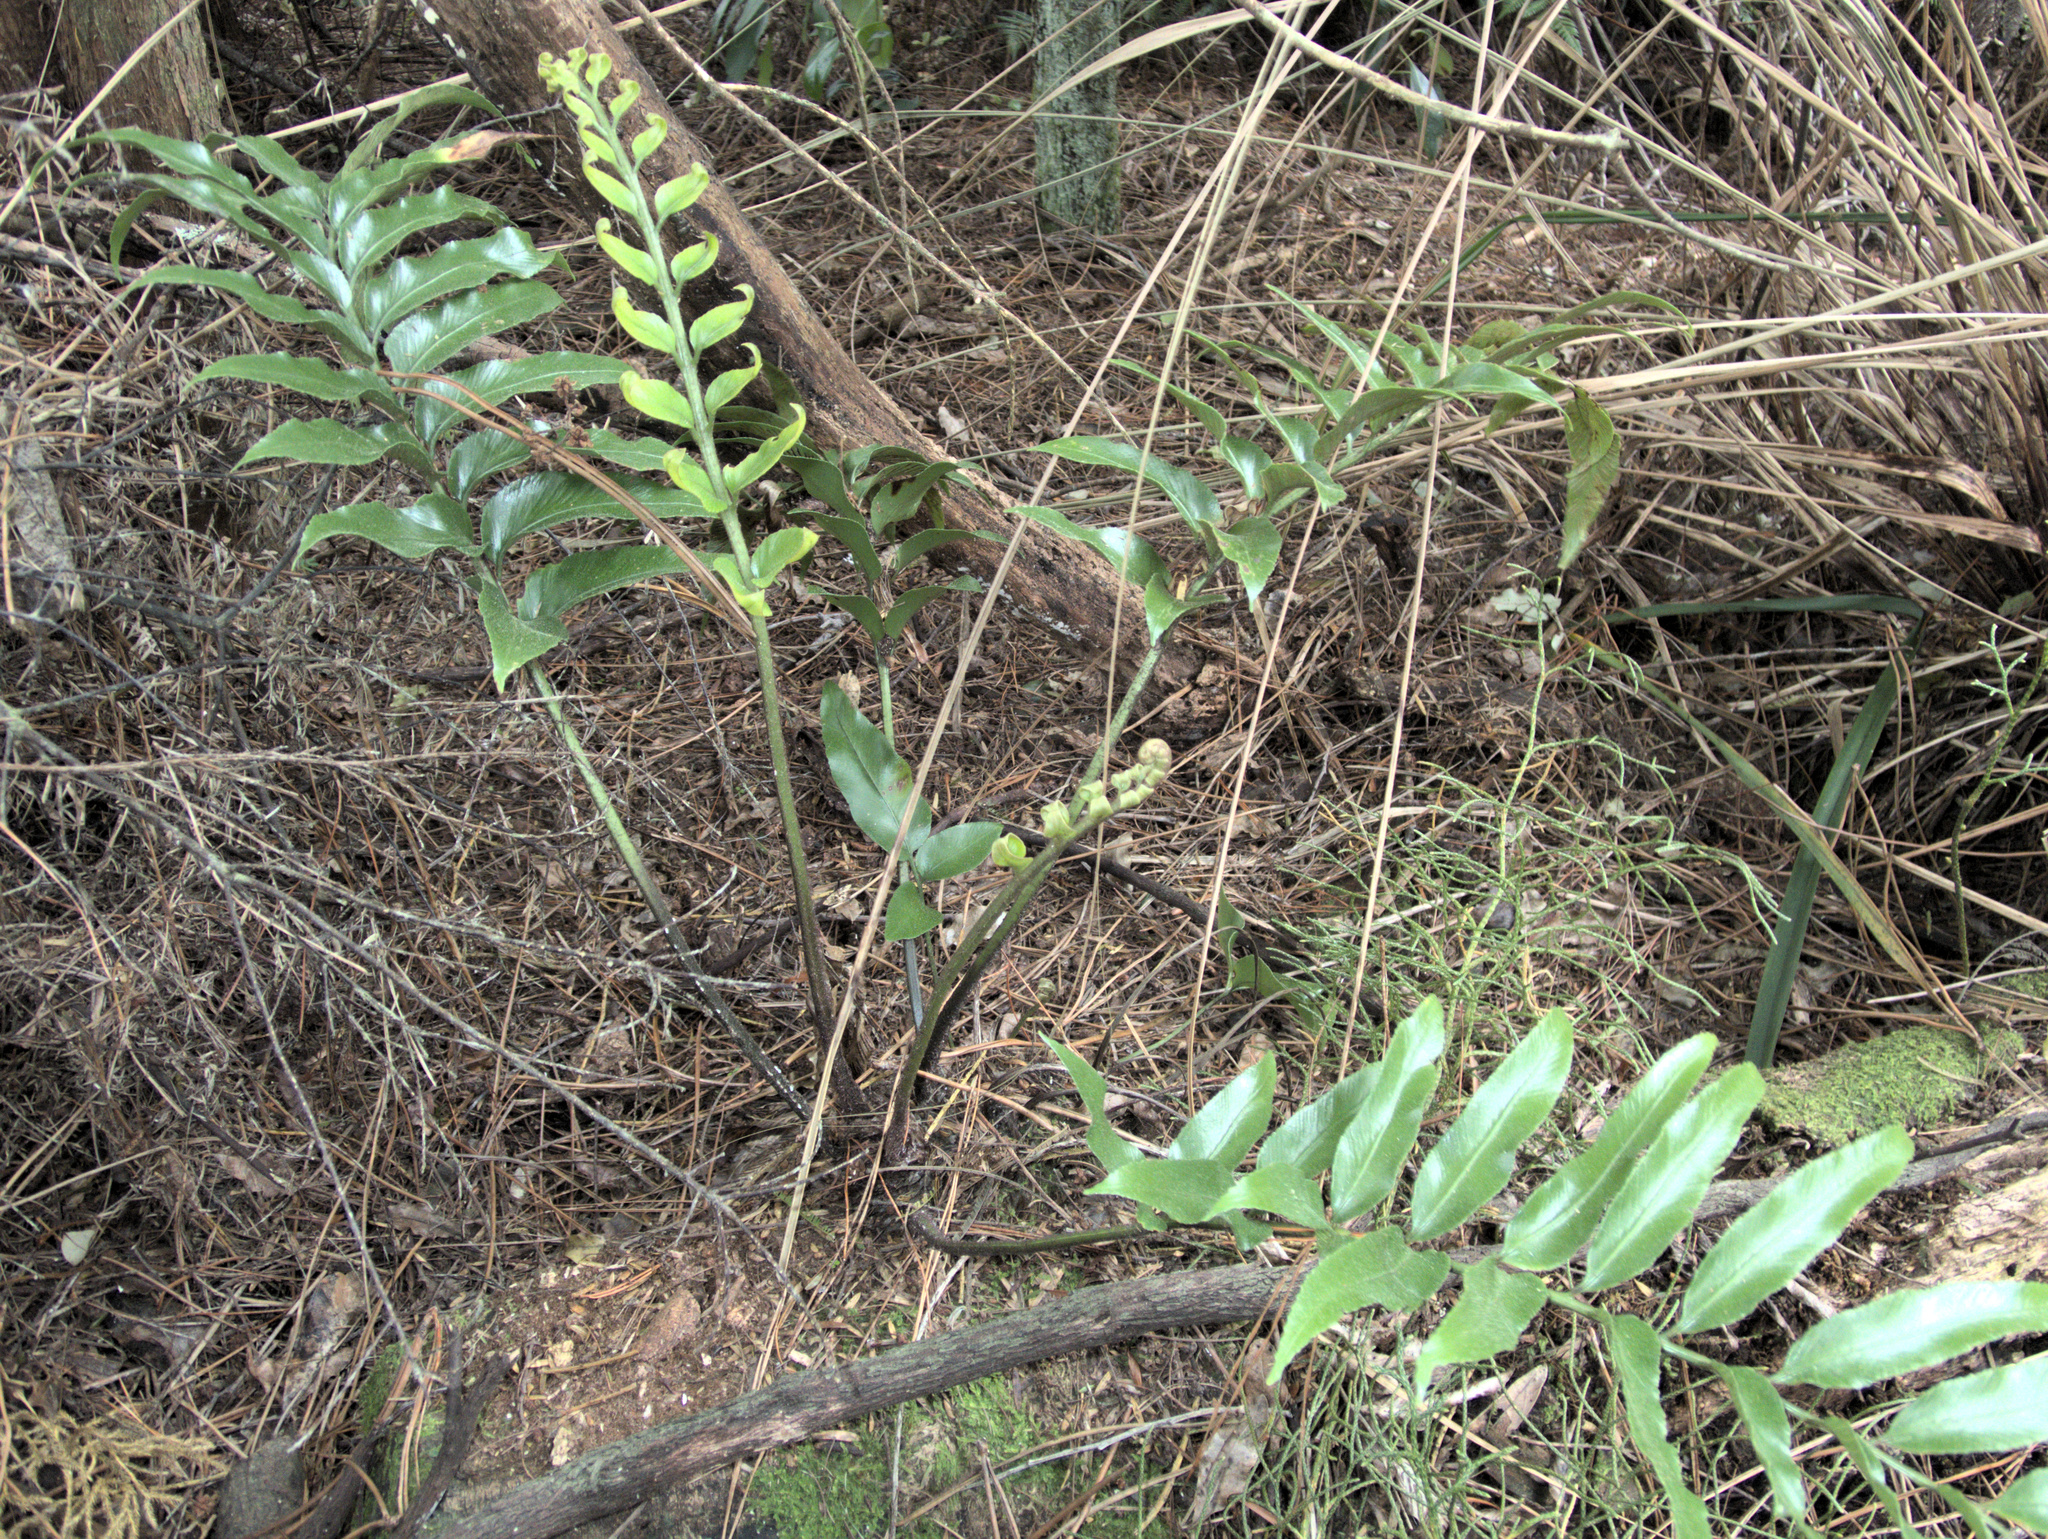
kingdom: Plantae
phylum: Tracheophyta
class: Polypodiopsida
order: Polypodiales
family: Aspleniaceae
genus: Asplenium
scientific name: Asplenium oblongifolium
